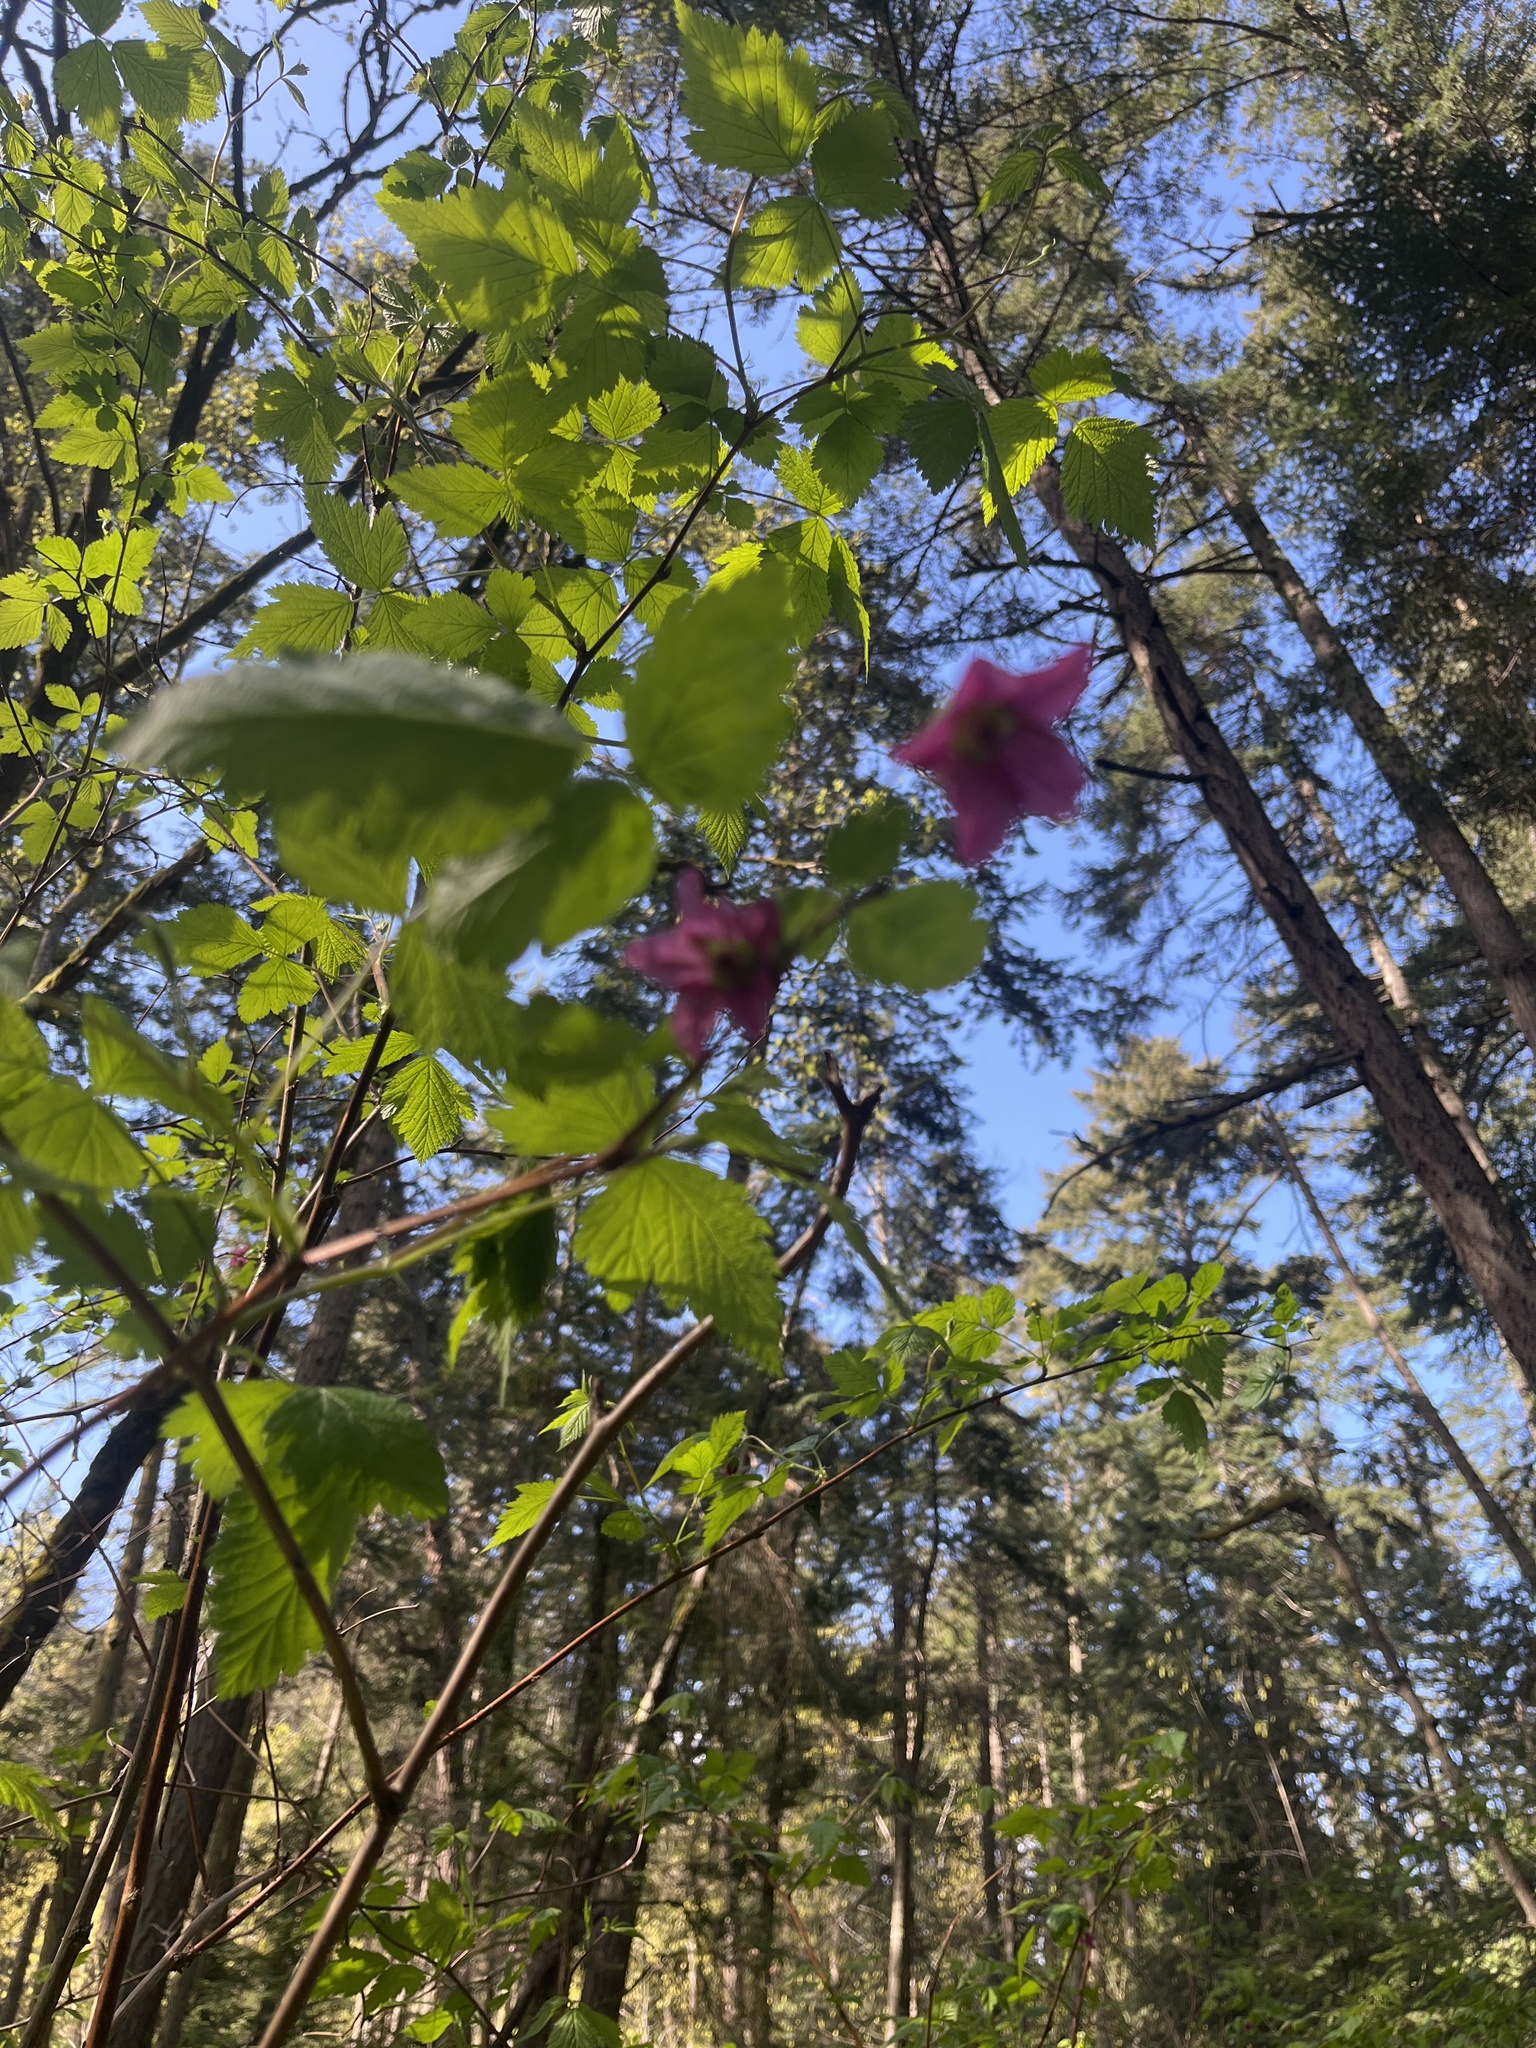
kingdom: Plantae
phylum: Tracheophyta
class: Magnoliopsida
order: Rosales
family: Rosaceae
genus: Rubus
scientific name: Rubus spectabilis
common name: Salmonberry
